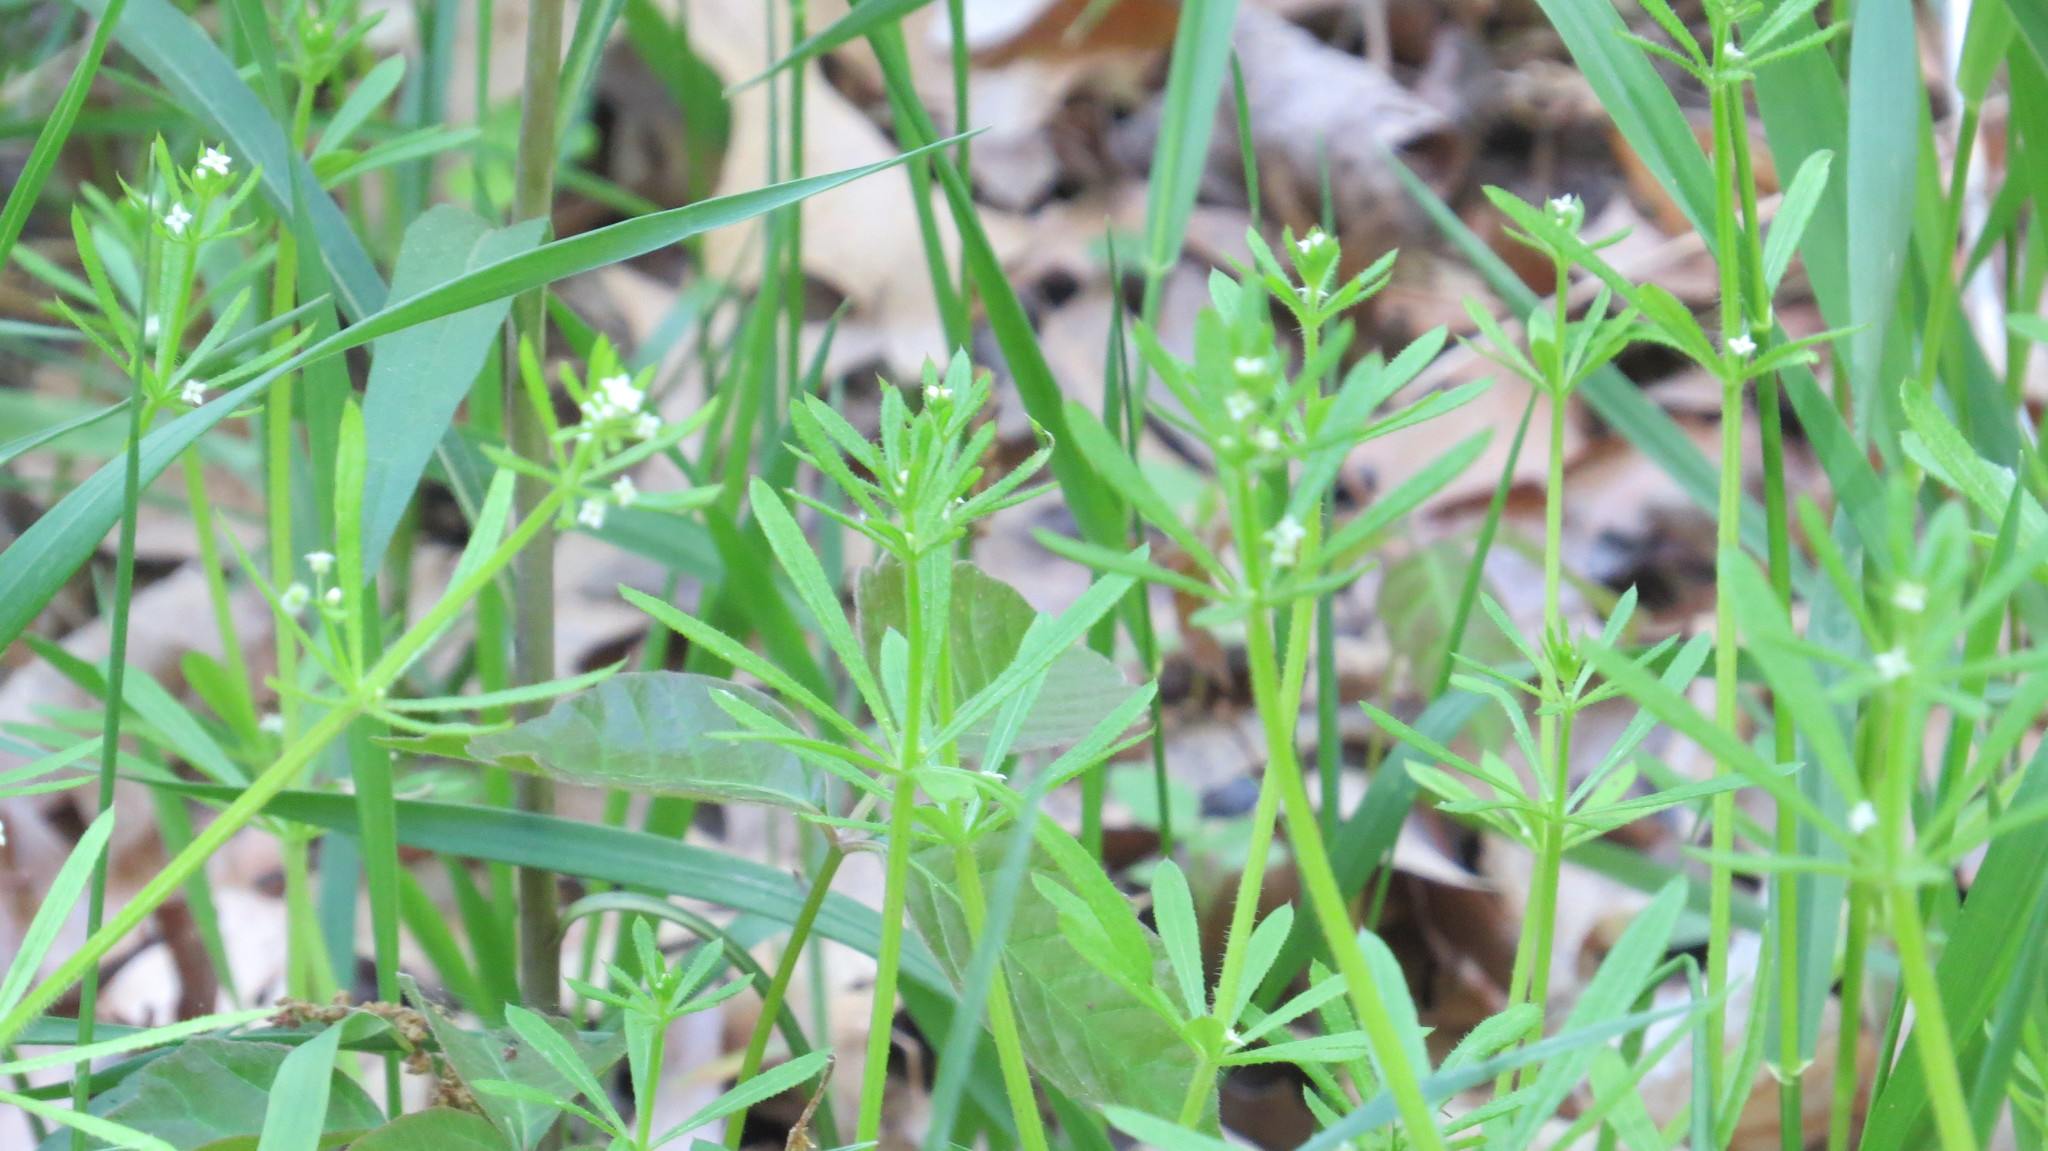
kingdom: Plantae
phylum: Tracheophyta
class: Magnoliopsida
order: Gentianales
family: Rubiaceae
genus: Galium
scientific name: Galium aparine
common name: Cleavers
